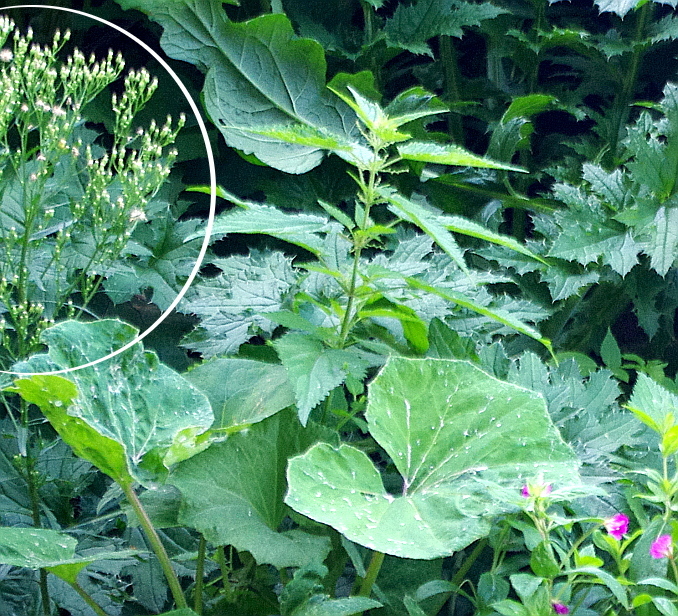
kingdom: Plantae
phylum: Tracheophyta
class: Magnoliopsida
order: Asterales
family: Asteraceae
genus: Erigeron
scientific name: Erigeron canadensis
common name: Canadian fleabane
